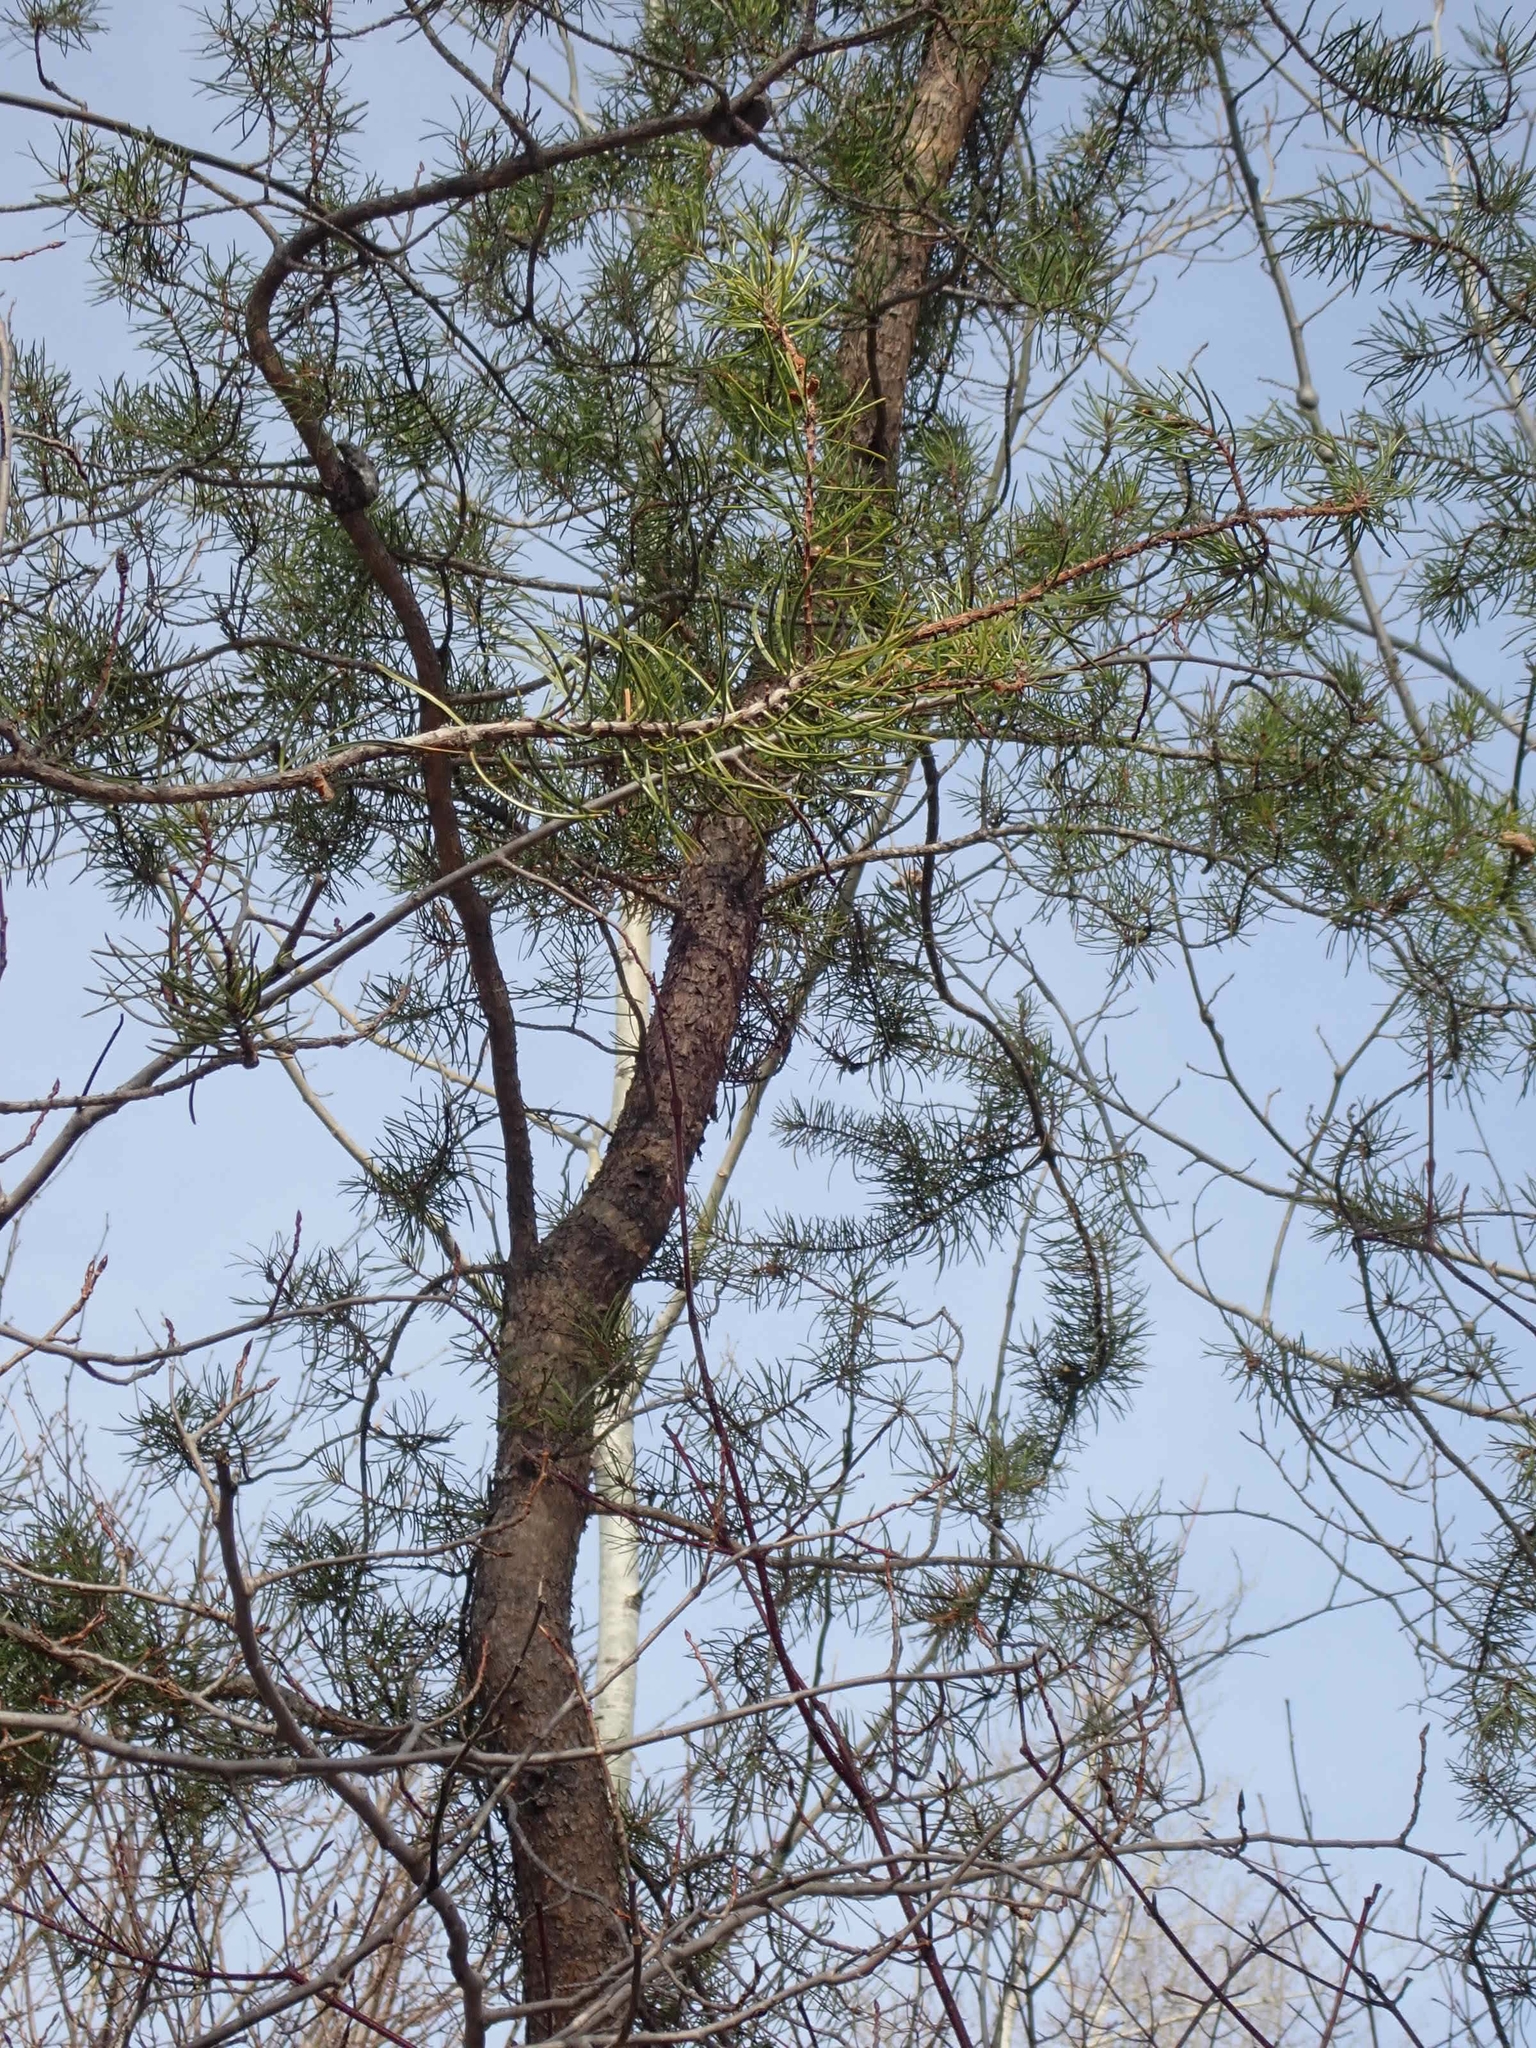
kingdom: Plantae
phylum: Tracheophyta
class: Pinopsida
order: Pinales
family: Pinaceae
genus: Pinus
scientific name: Pinus banksiana
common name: Jack pine
